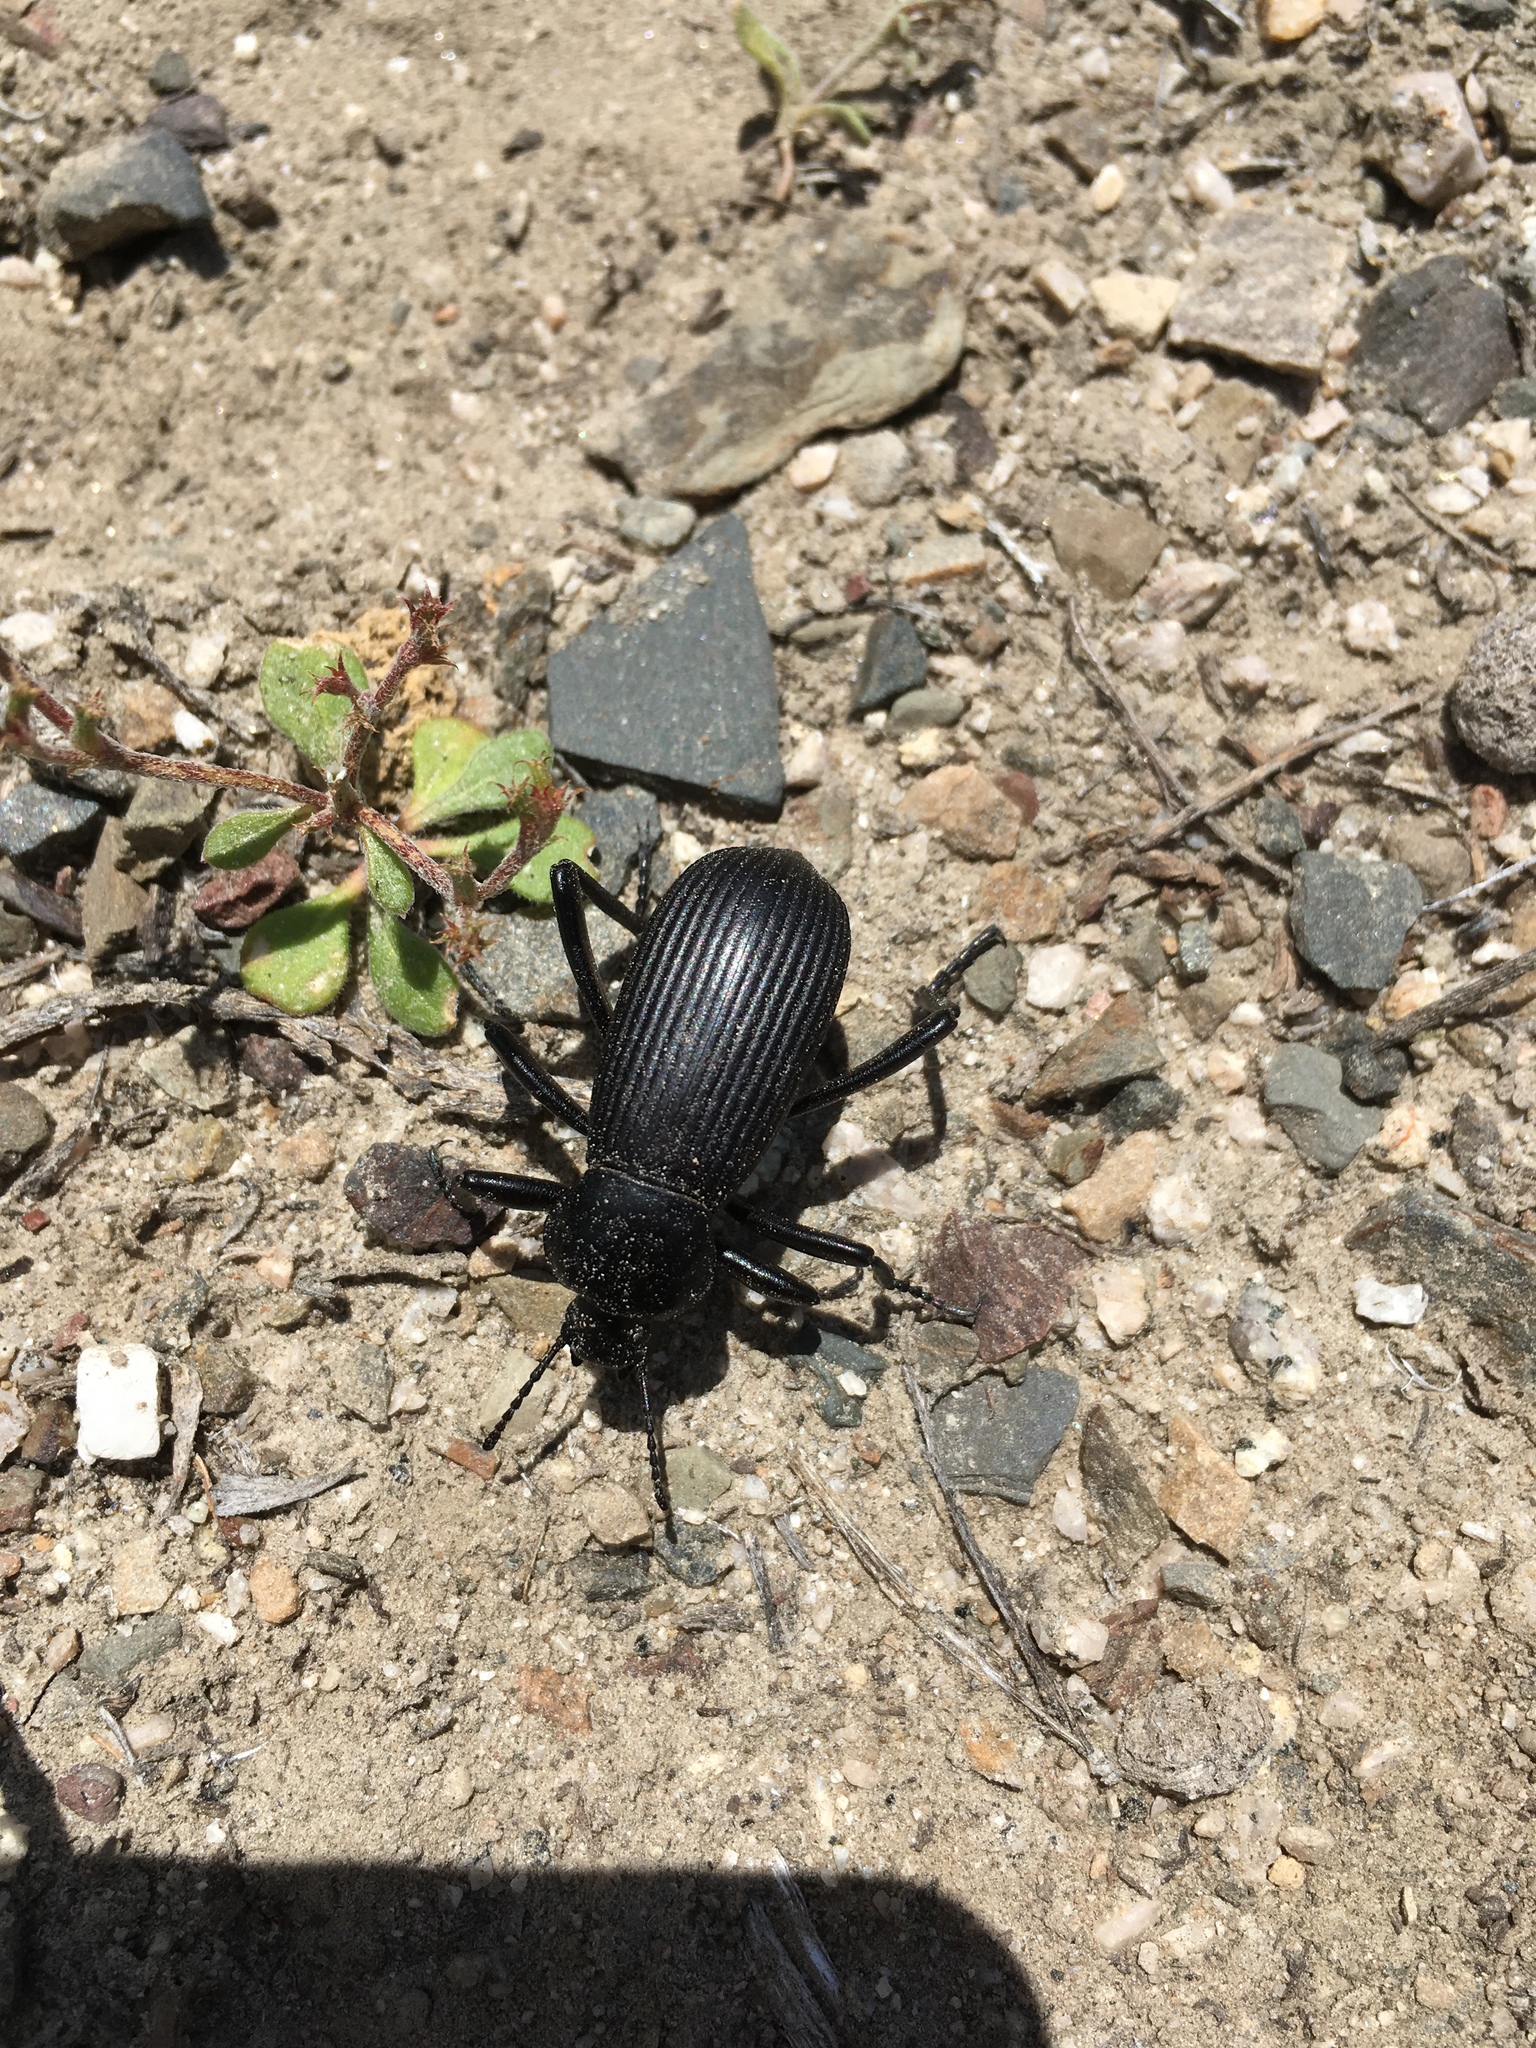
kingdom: Animalia
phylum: Arthropoda
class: Insecta
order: Coleoptera
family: Tenebrionidae
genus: Eleodes
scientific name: Eleodes obscura
